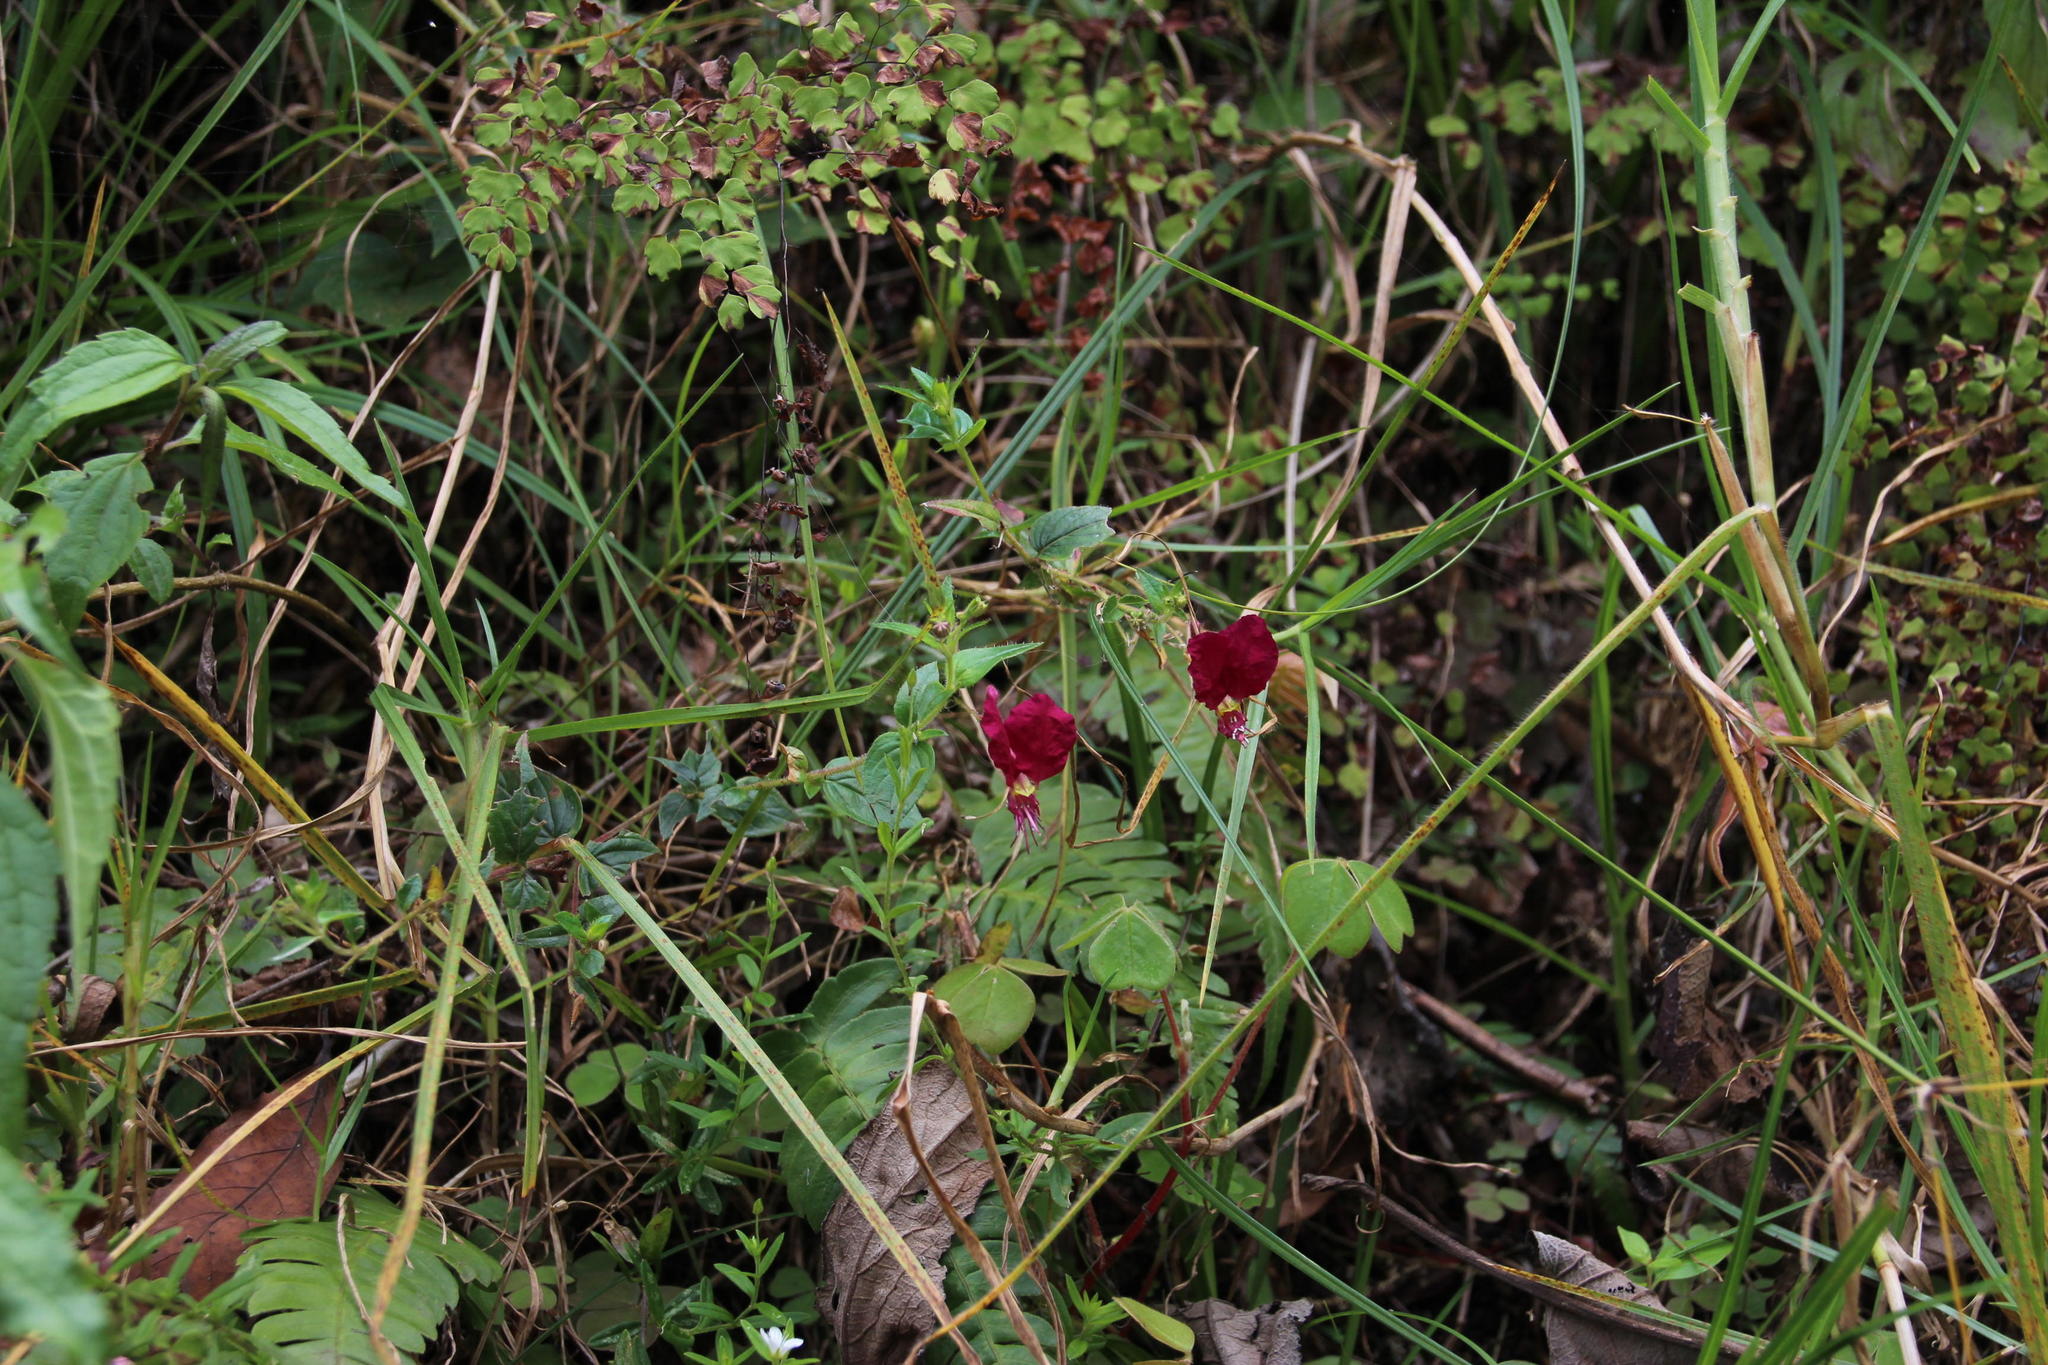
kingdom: Plantae
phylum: Tracheophyta
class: Magnoliopsida
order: Myrtales
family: Lythraceae
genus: Cuphea
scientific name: Cuphea cordata
